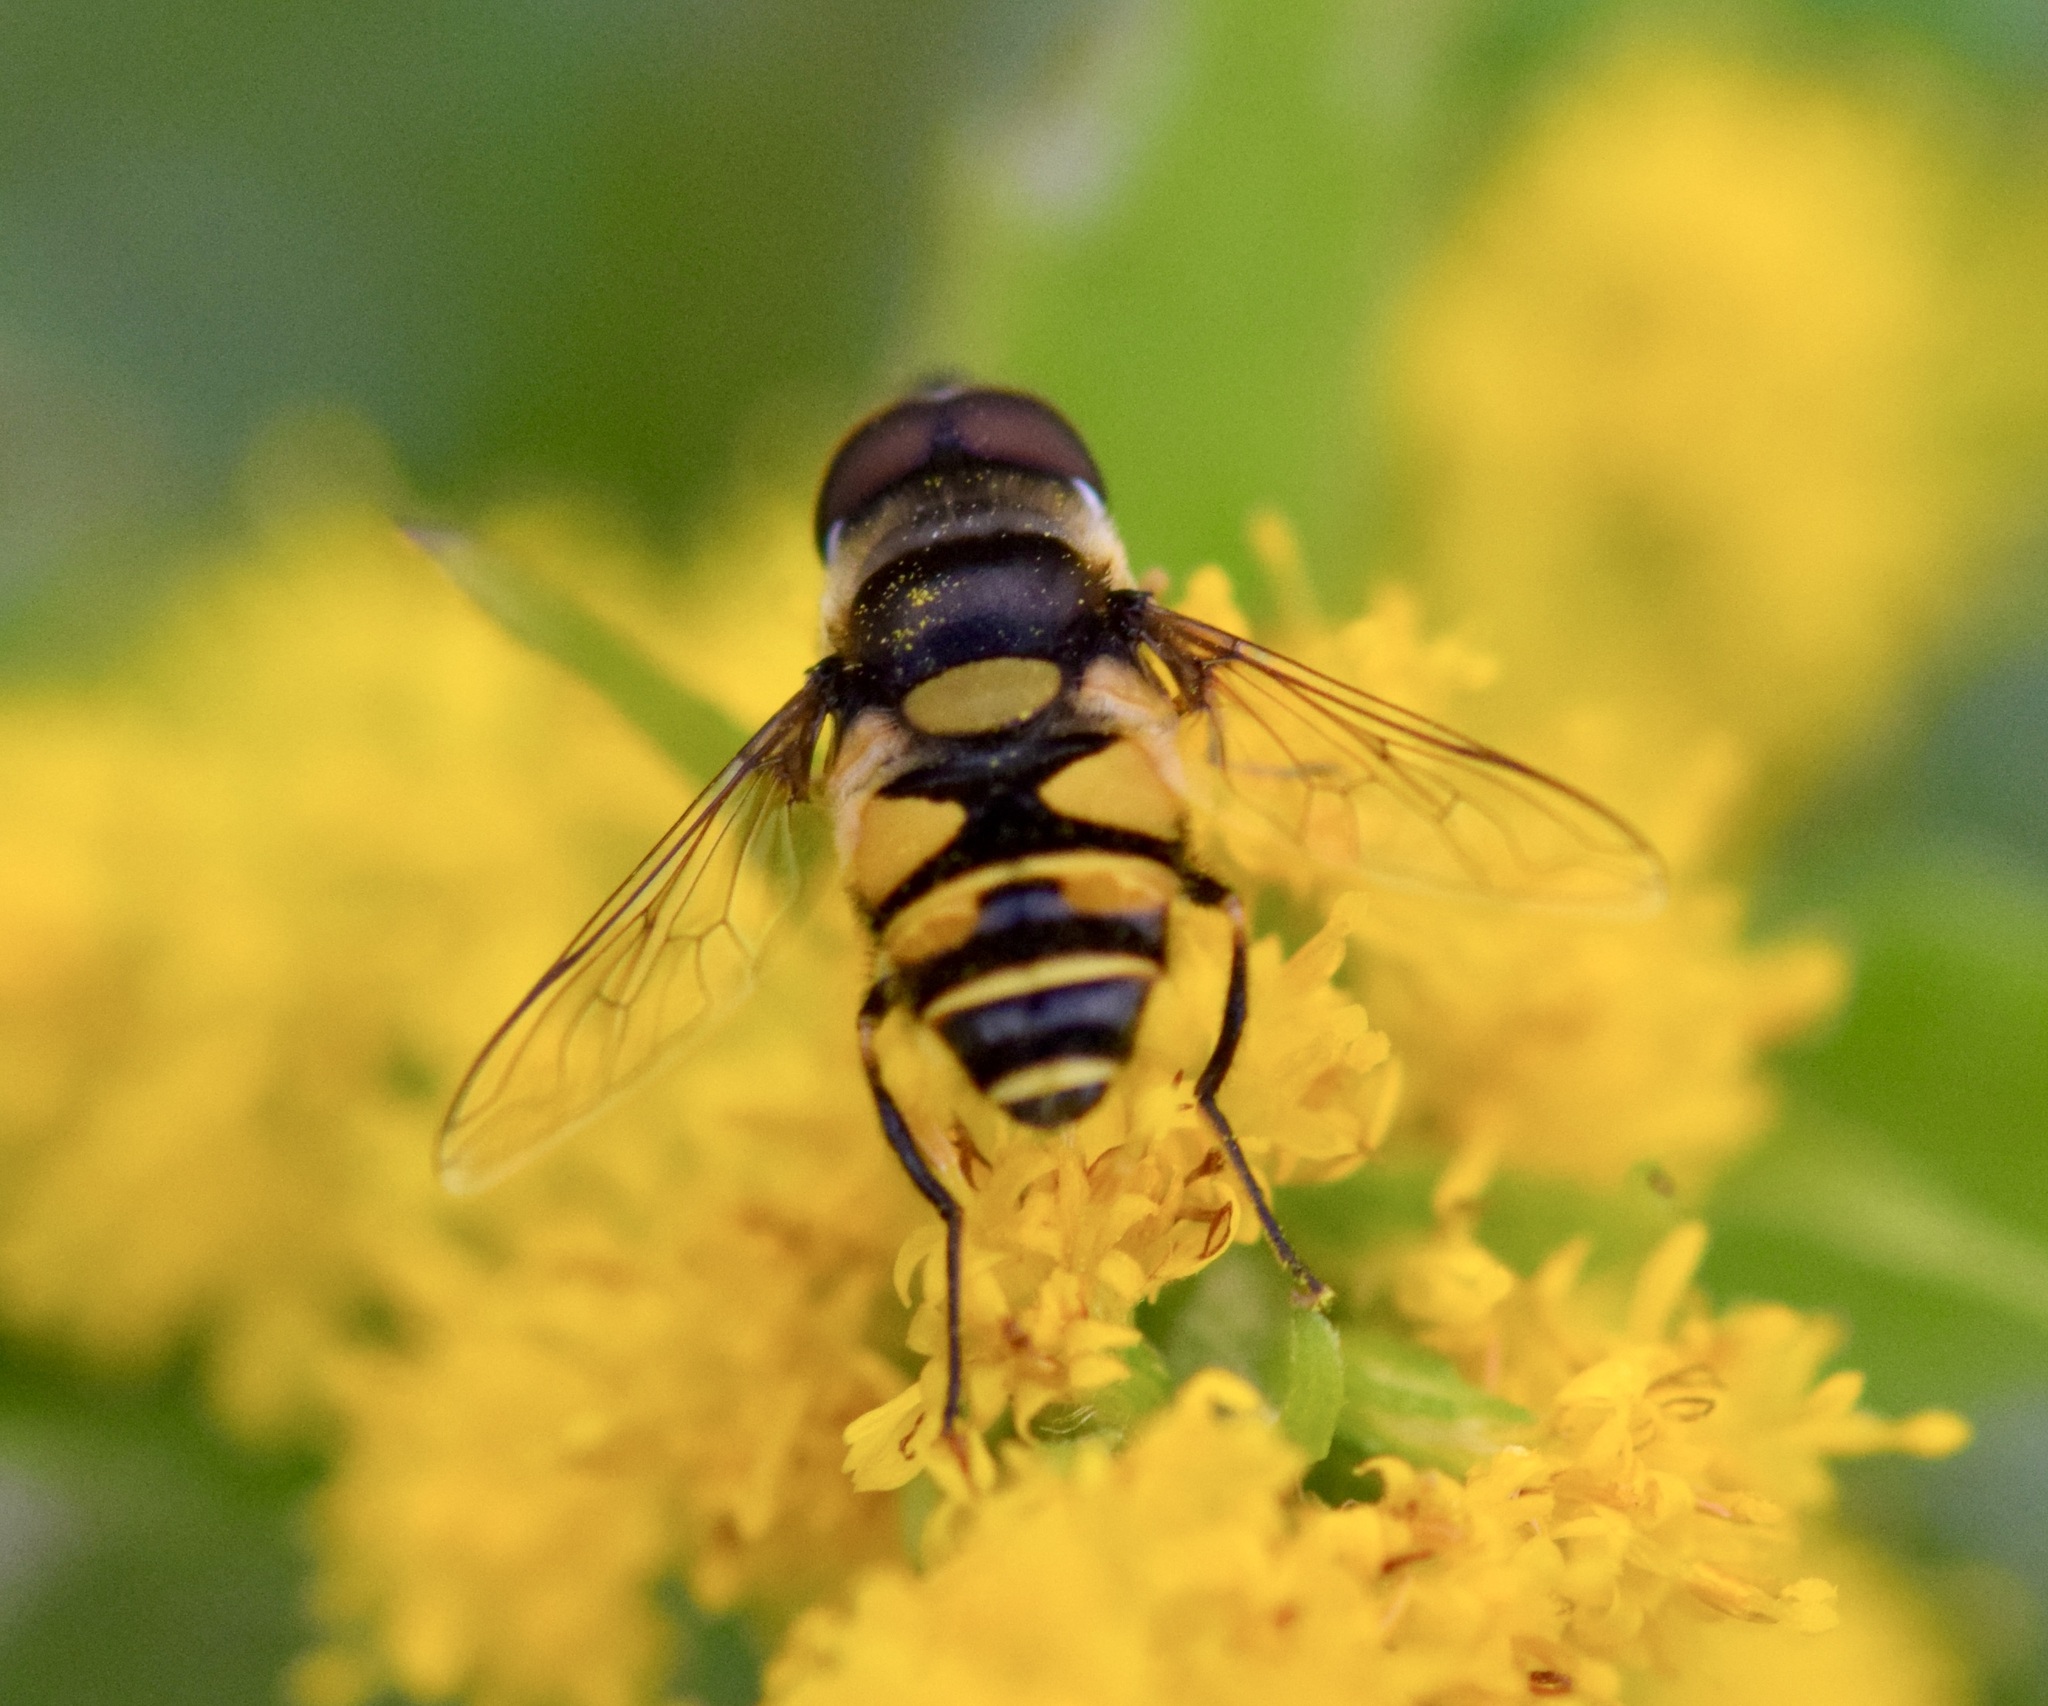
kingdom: Animalia
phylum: Arthropoda
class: Insecta
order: Diptera
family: Syrphidae
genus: Eristalis
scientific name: Eristalis transversa
